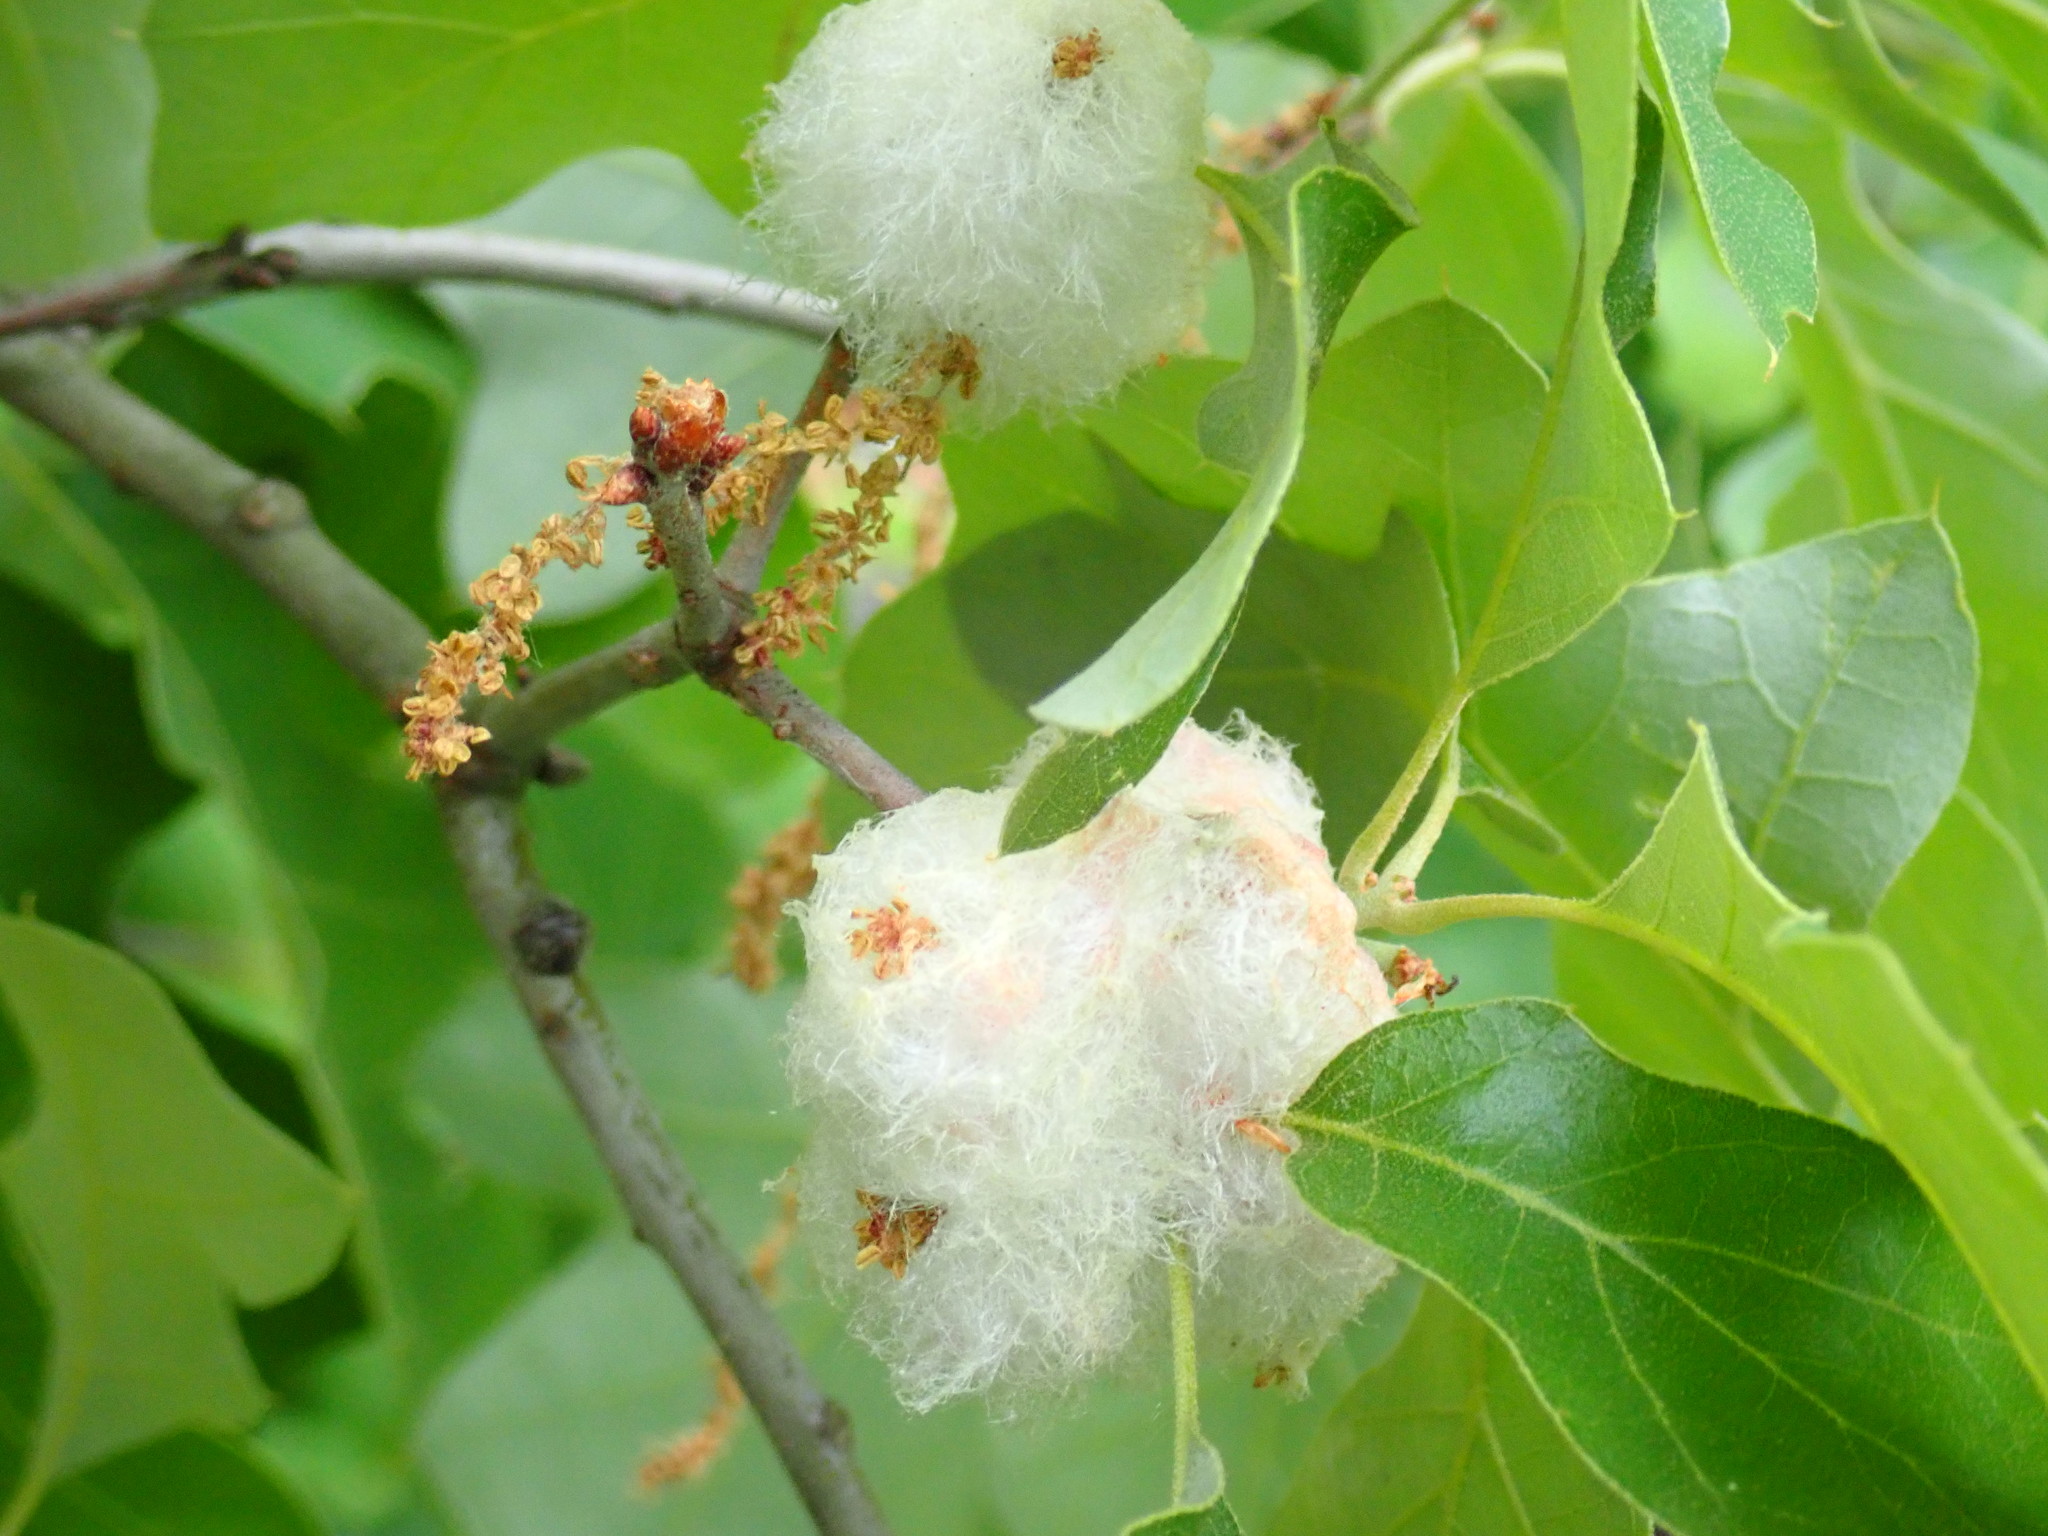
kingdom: Animalia
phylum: Arthropoda
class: Insecta
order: Hymenoptera
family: Cynipidae
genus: Callirhytis
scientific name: Callirhytis
